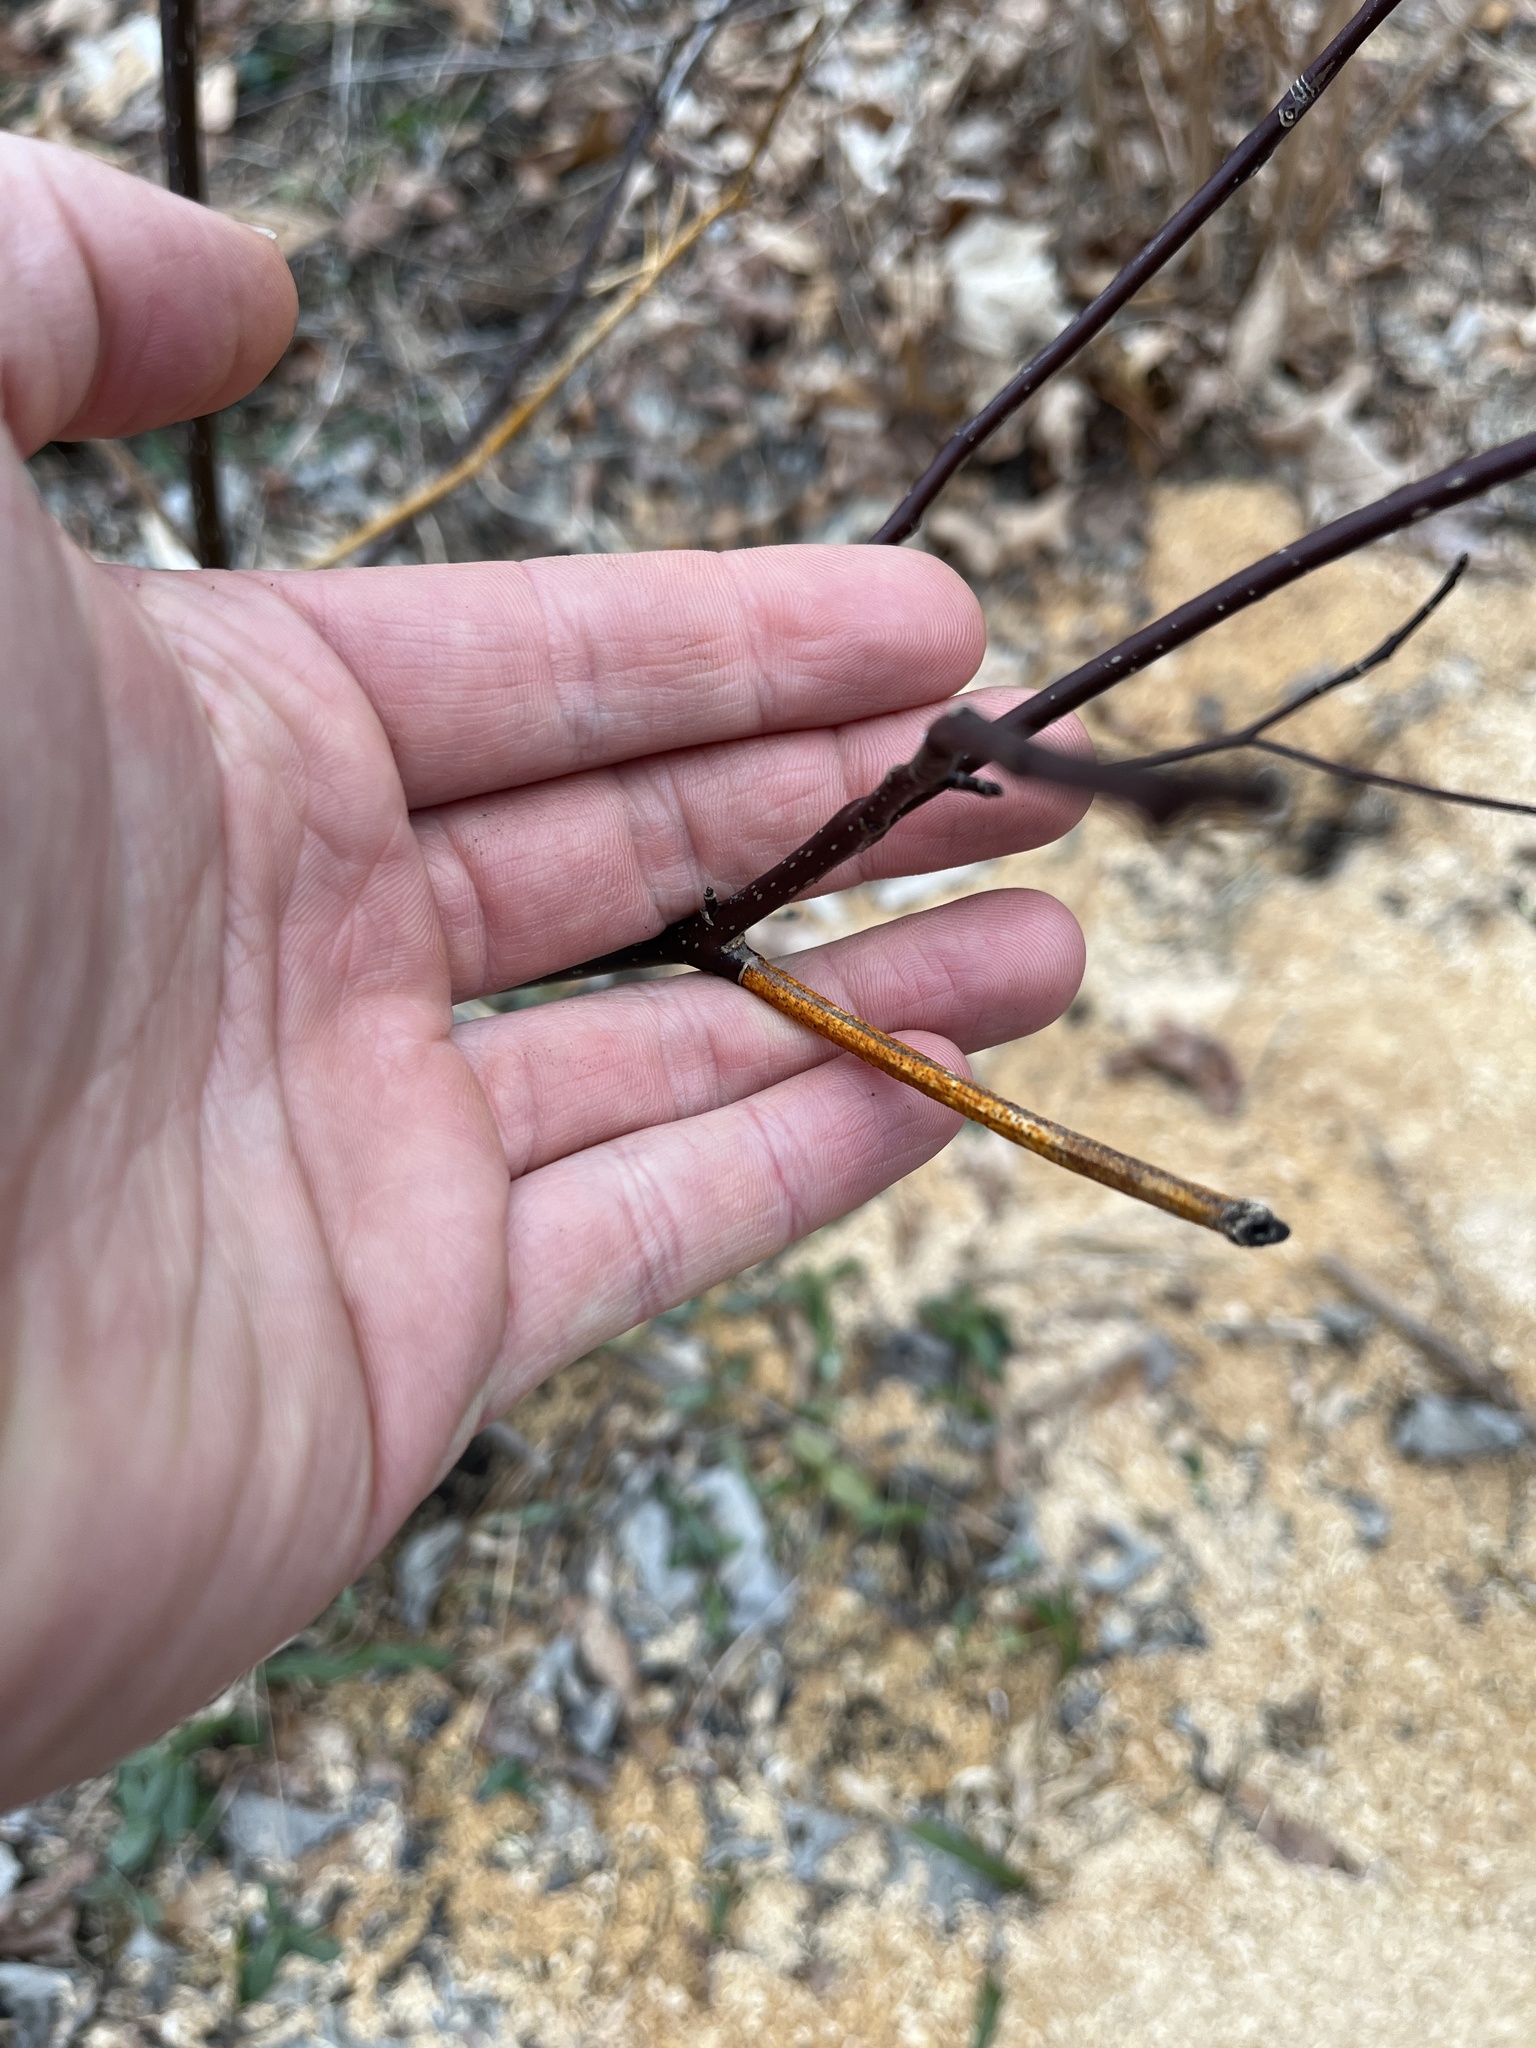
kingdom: Plantae
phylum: Tracheophyta
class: Magnoliopsida
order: Cornales
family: Cornaceae
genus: Cornus
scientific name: Cornus alternifolia
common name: Pagoda dogwood
